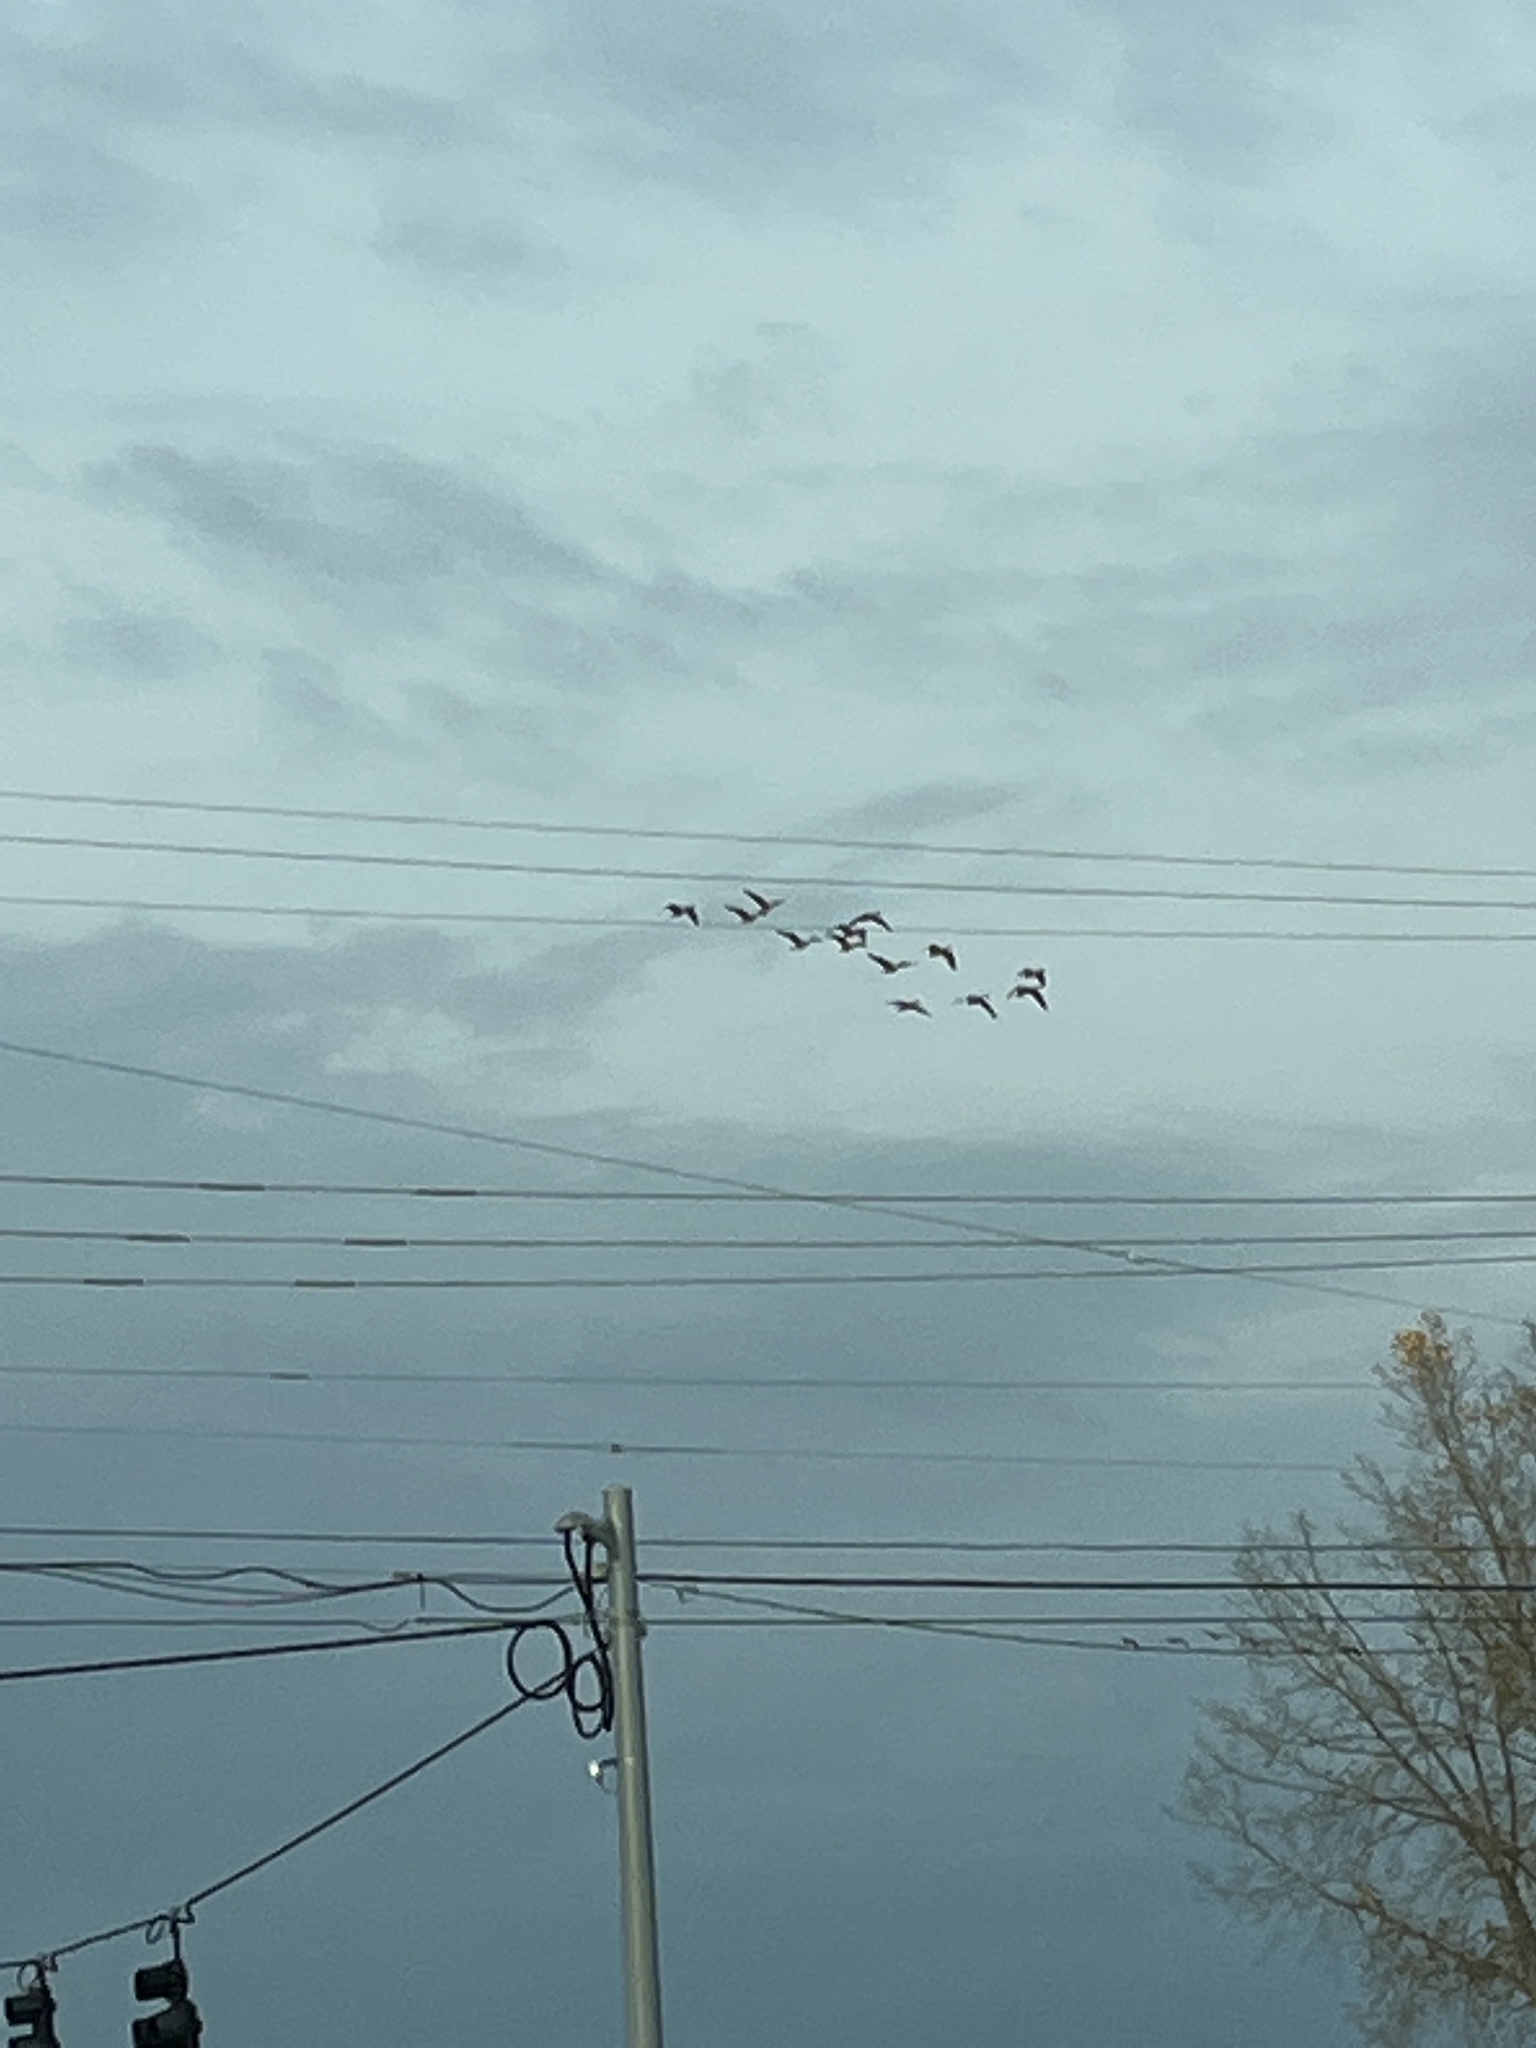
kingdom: Animalia
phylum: Chordata
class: Aves
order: Anseriformes
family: Anatidae
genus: Branta
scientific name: Branta canadensis
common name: Canada goose
